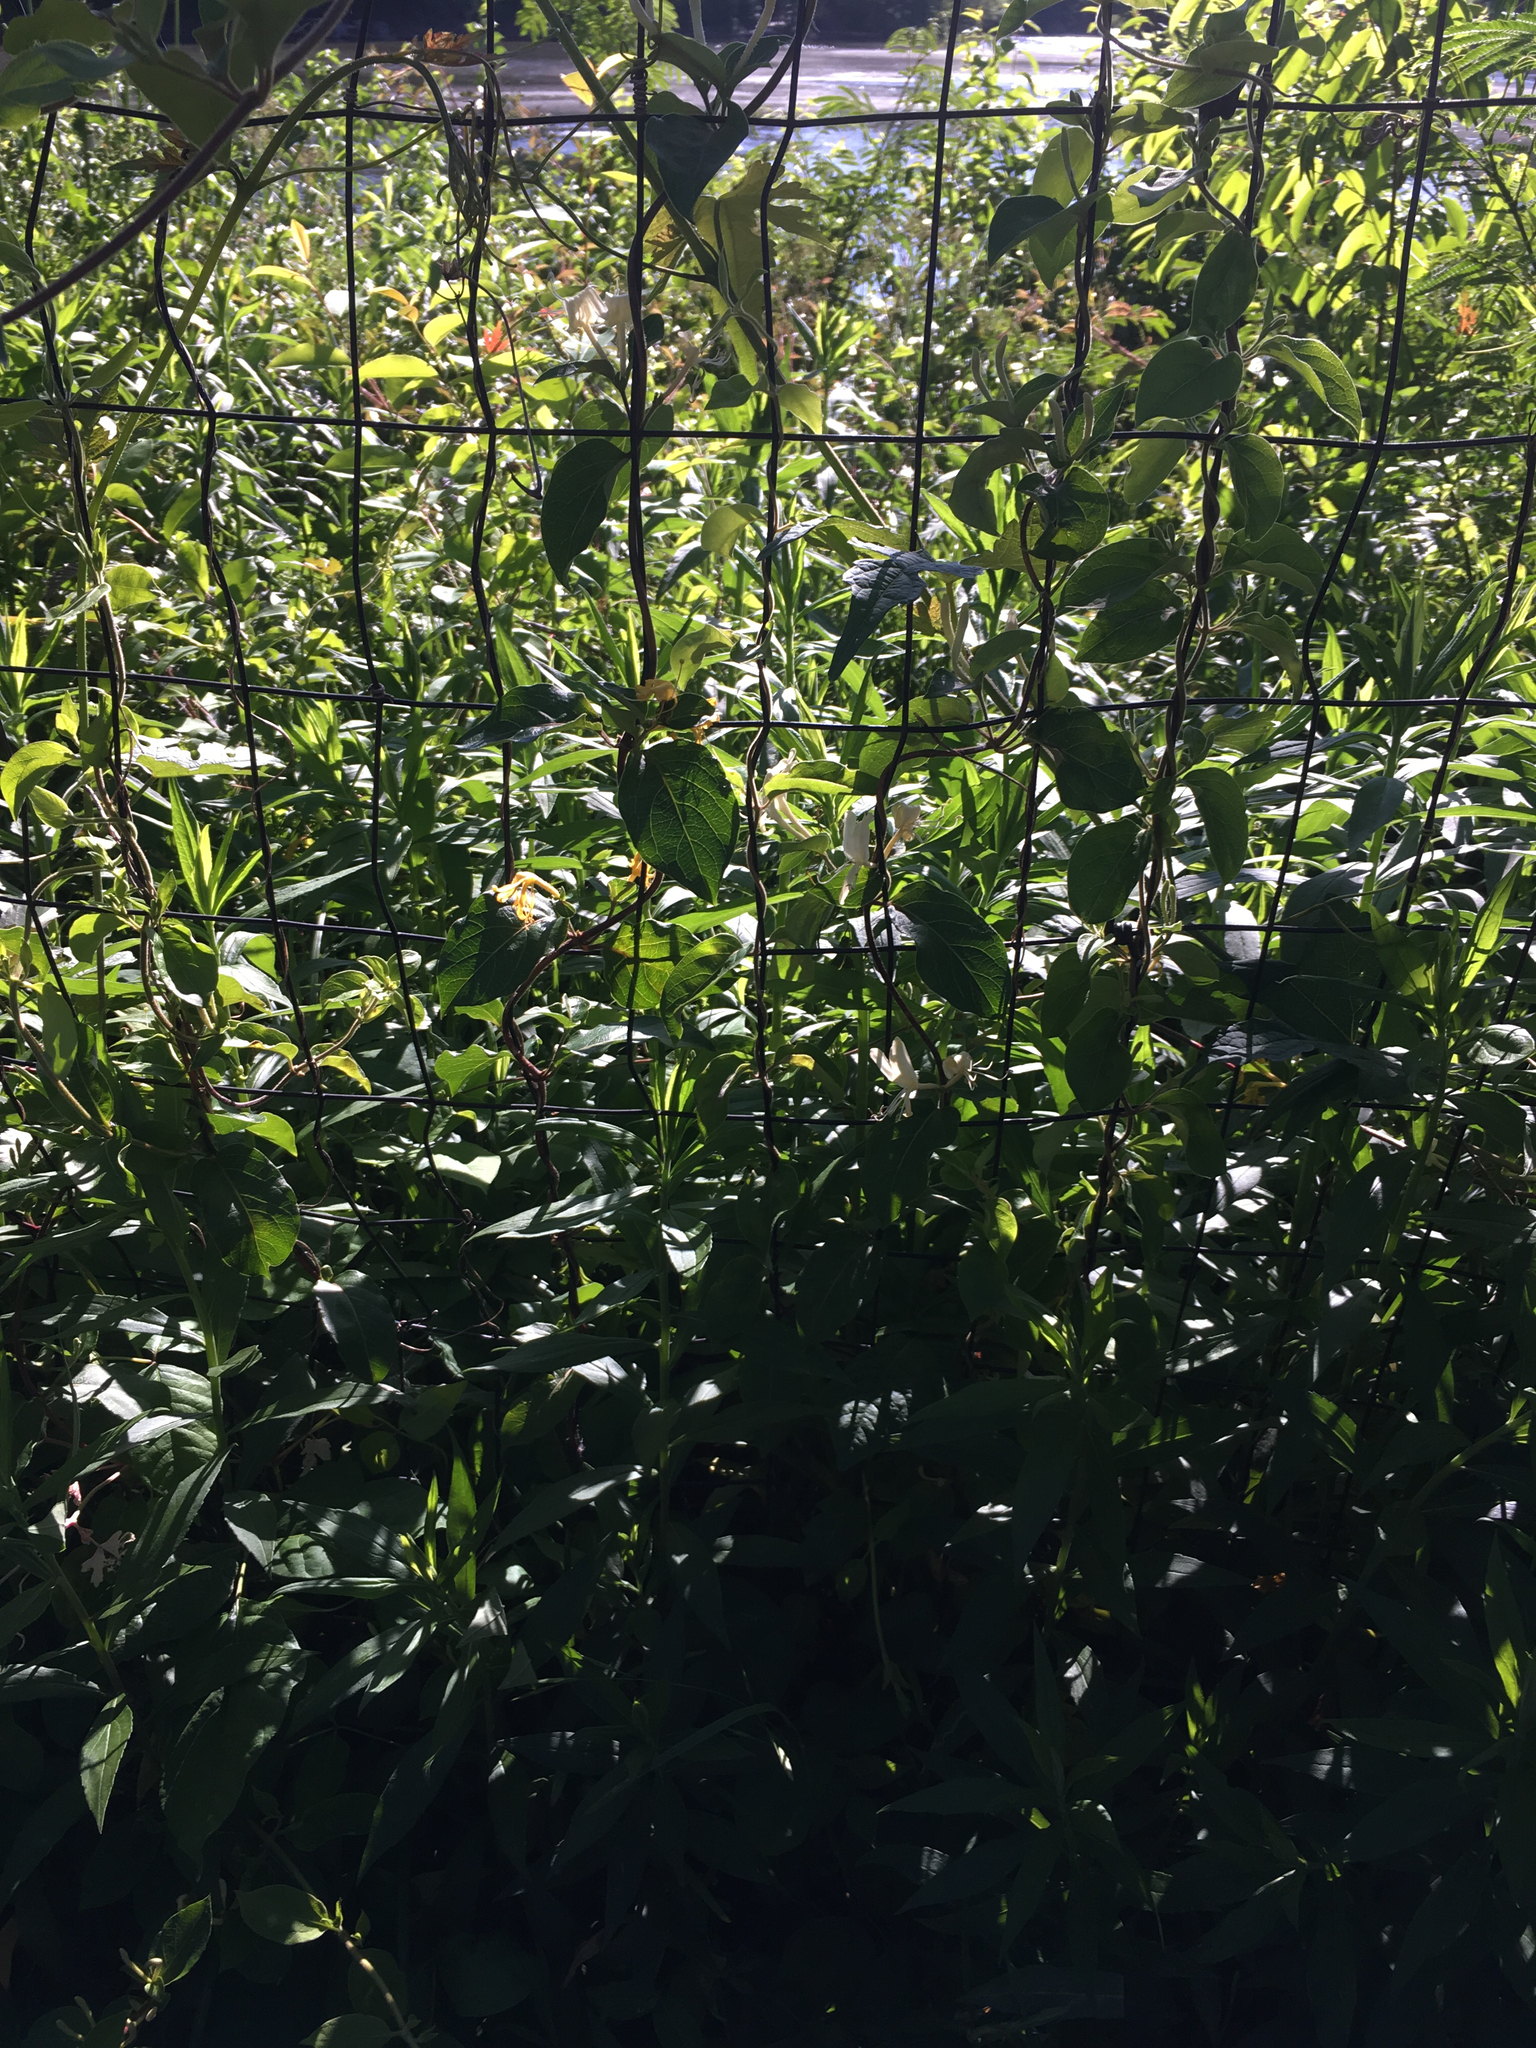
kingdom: Plantae
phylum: Tracheophyta
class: Magnoliopsida
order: Dipsacales
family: Caprifoliaceae
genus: Lonicera
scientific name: Lonicera japonica
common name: Japanese honeysuckle
